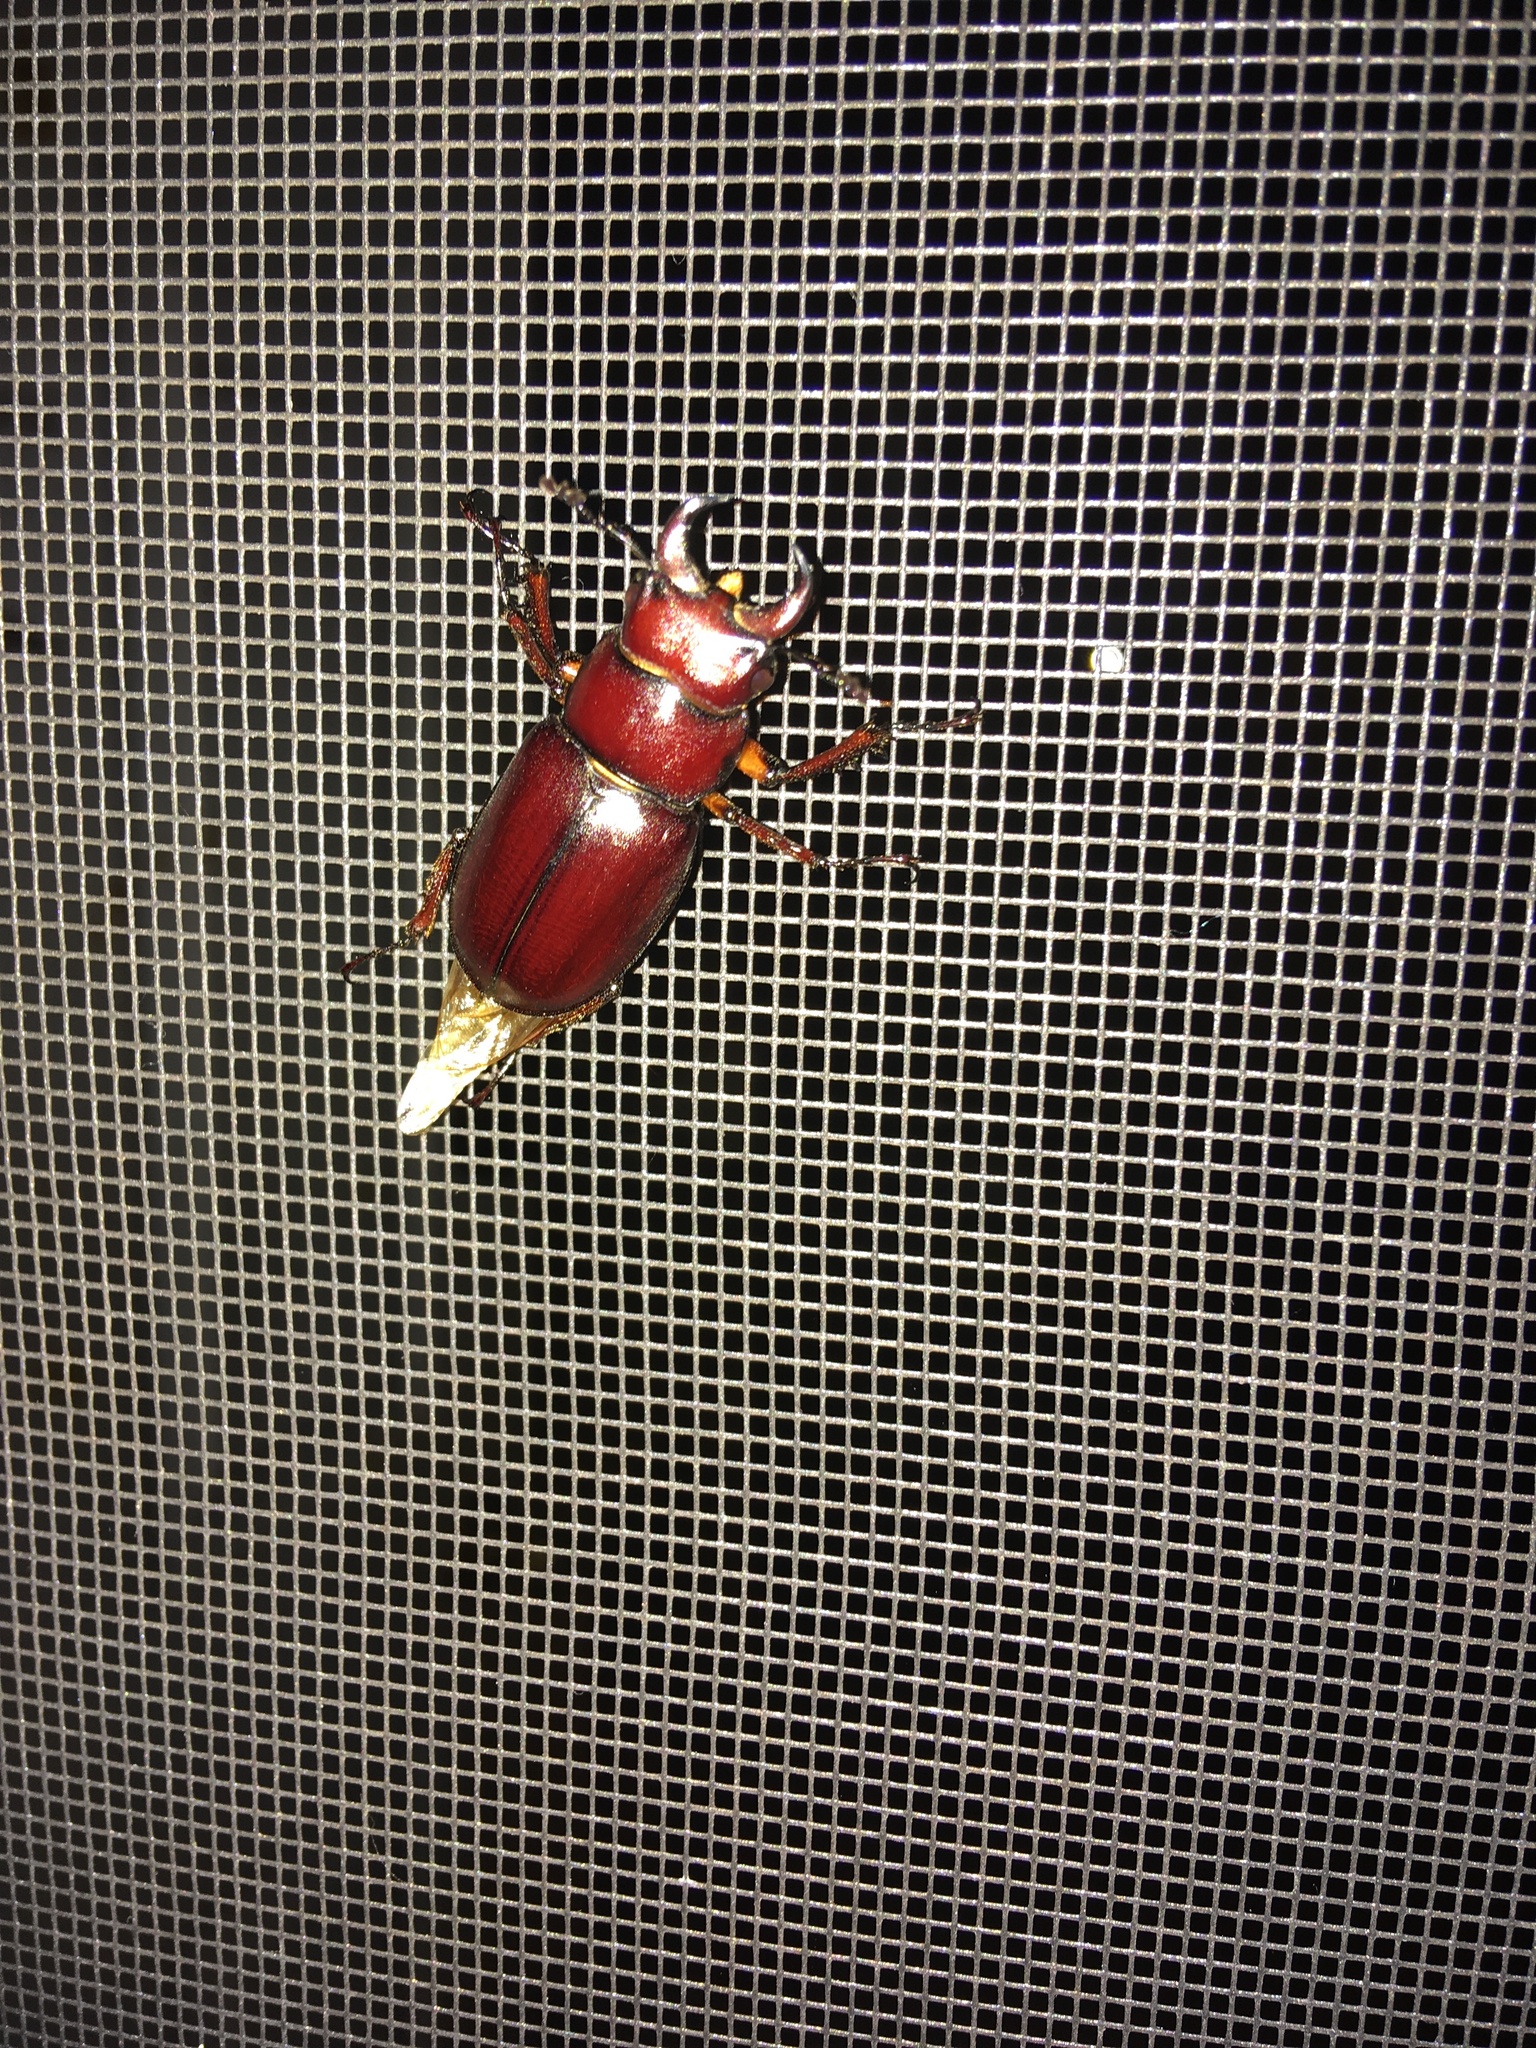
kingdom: Animalia
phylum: Arthropoda
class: Insecta
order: Coleoptera
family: Lucanidae
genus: Lucanus
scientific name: Lucanus capreolus
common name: Stag beetle
